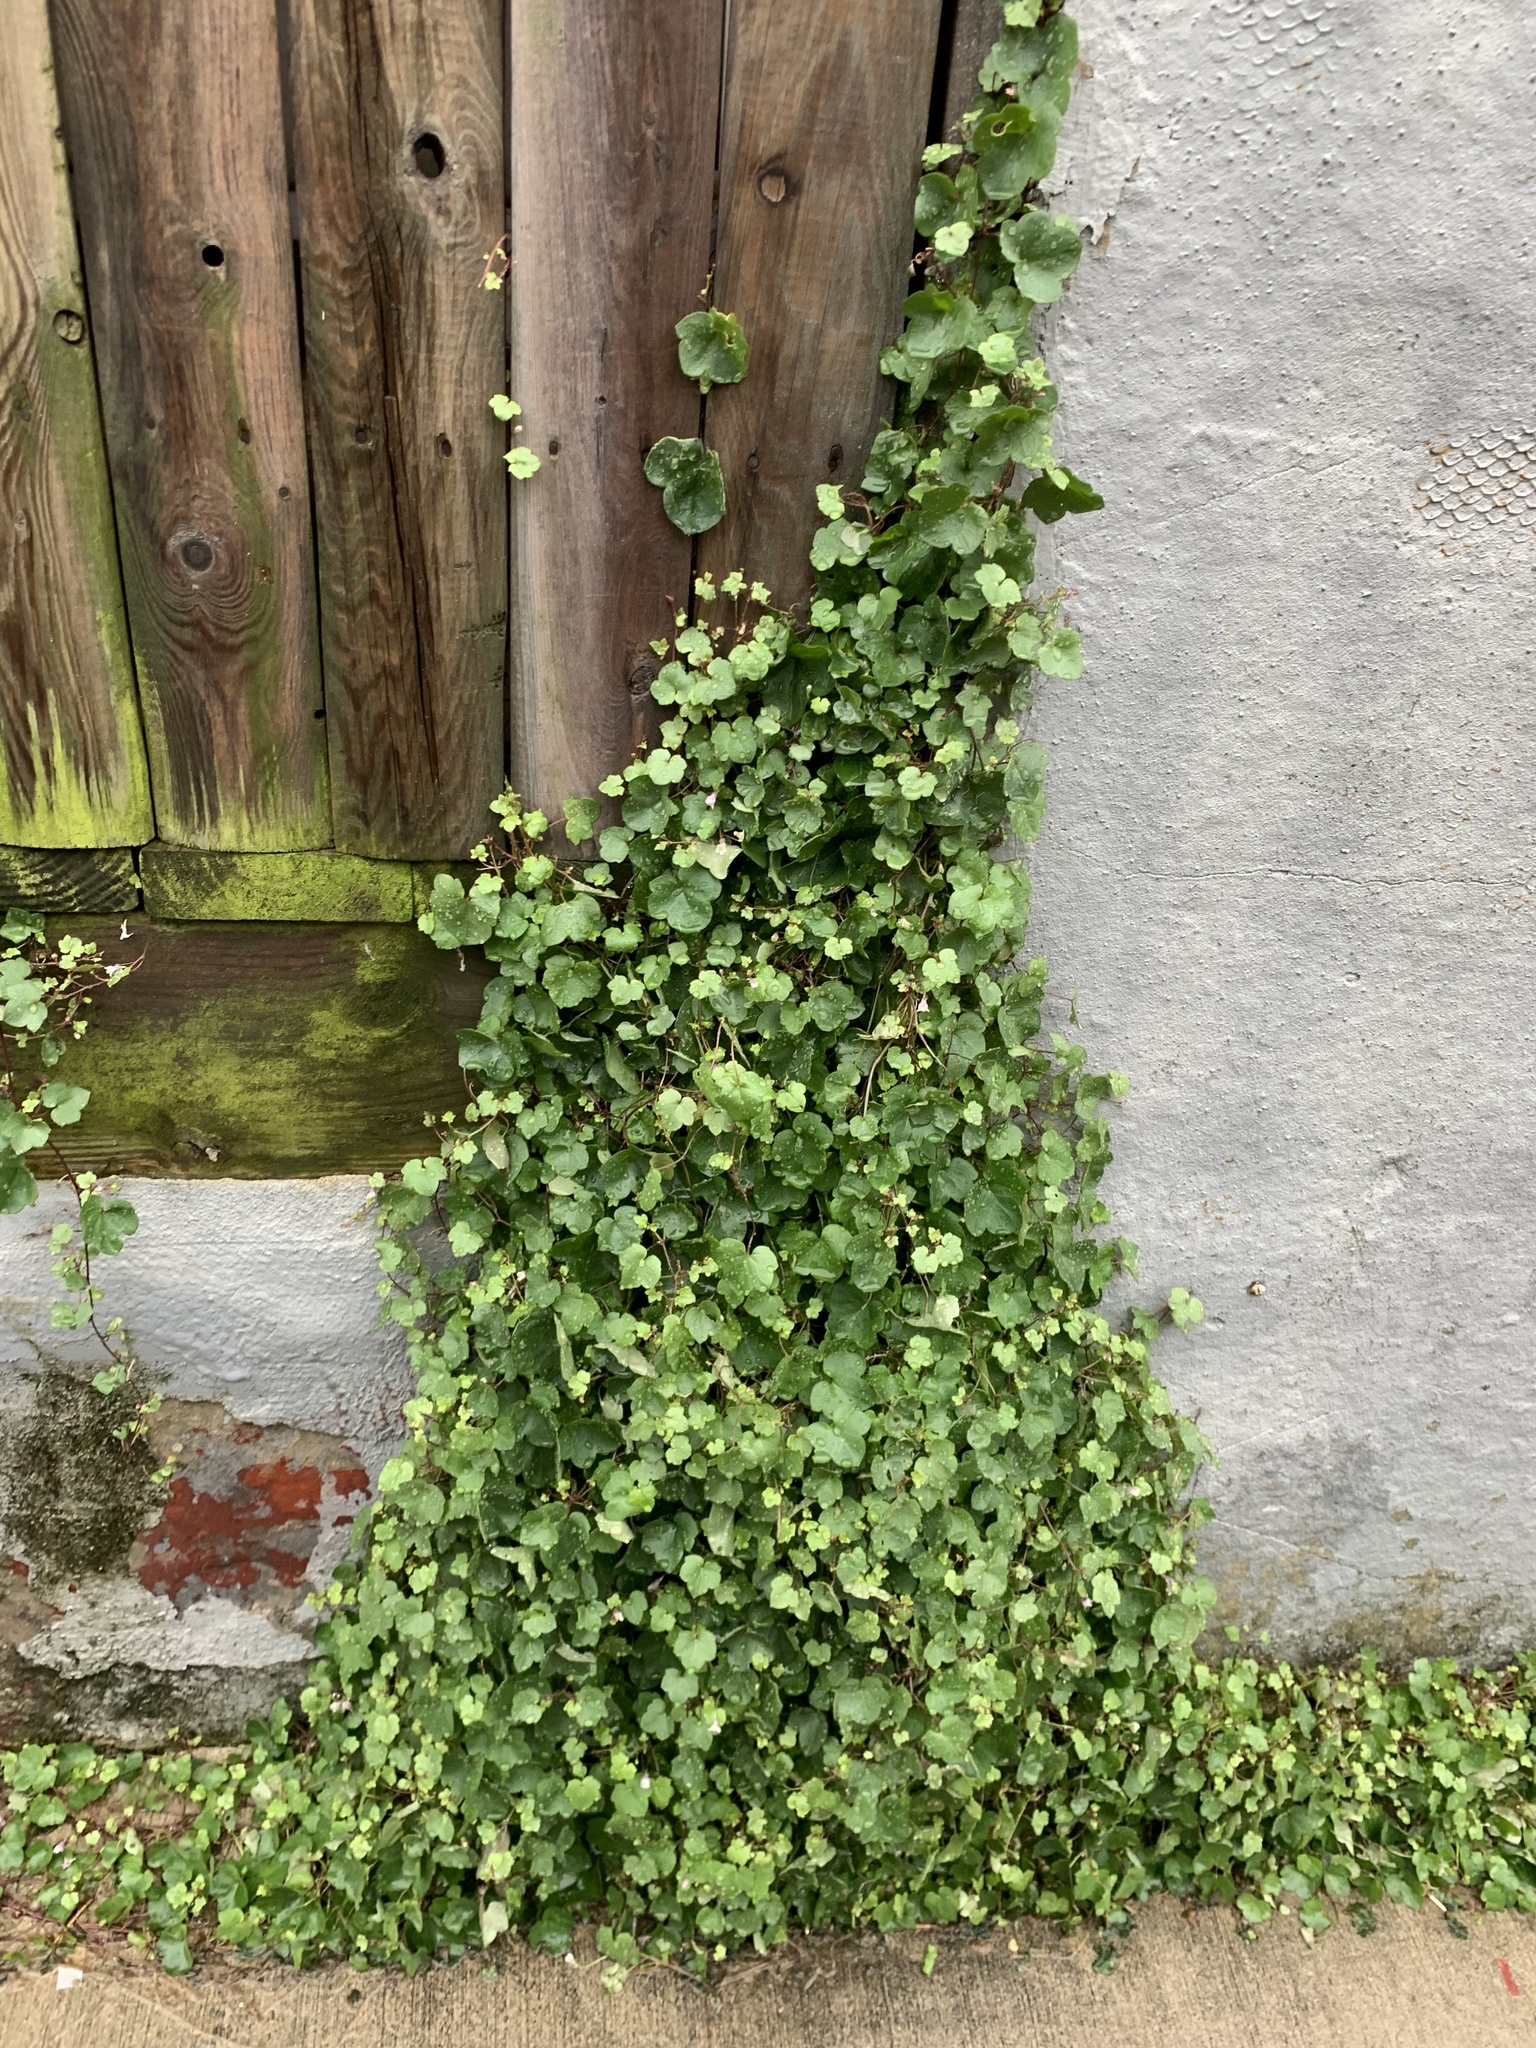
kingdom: Plantae
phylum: Tracheophyta
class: Magnoliopsida
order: Lamiales
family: Plantaginaceae
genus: Cymbalaria
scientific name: Cymbalaria muralis
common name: Ivy-leaved toadflax
